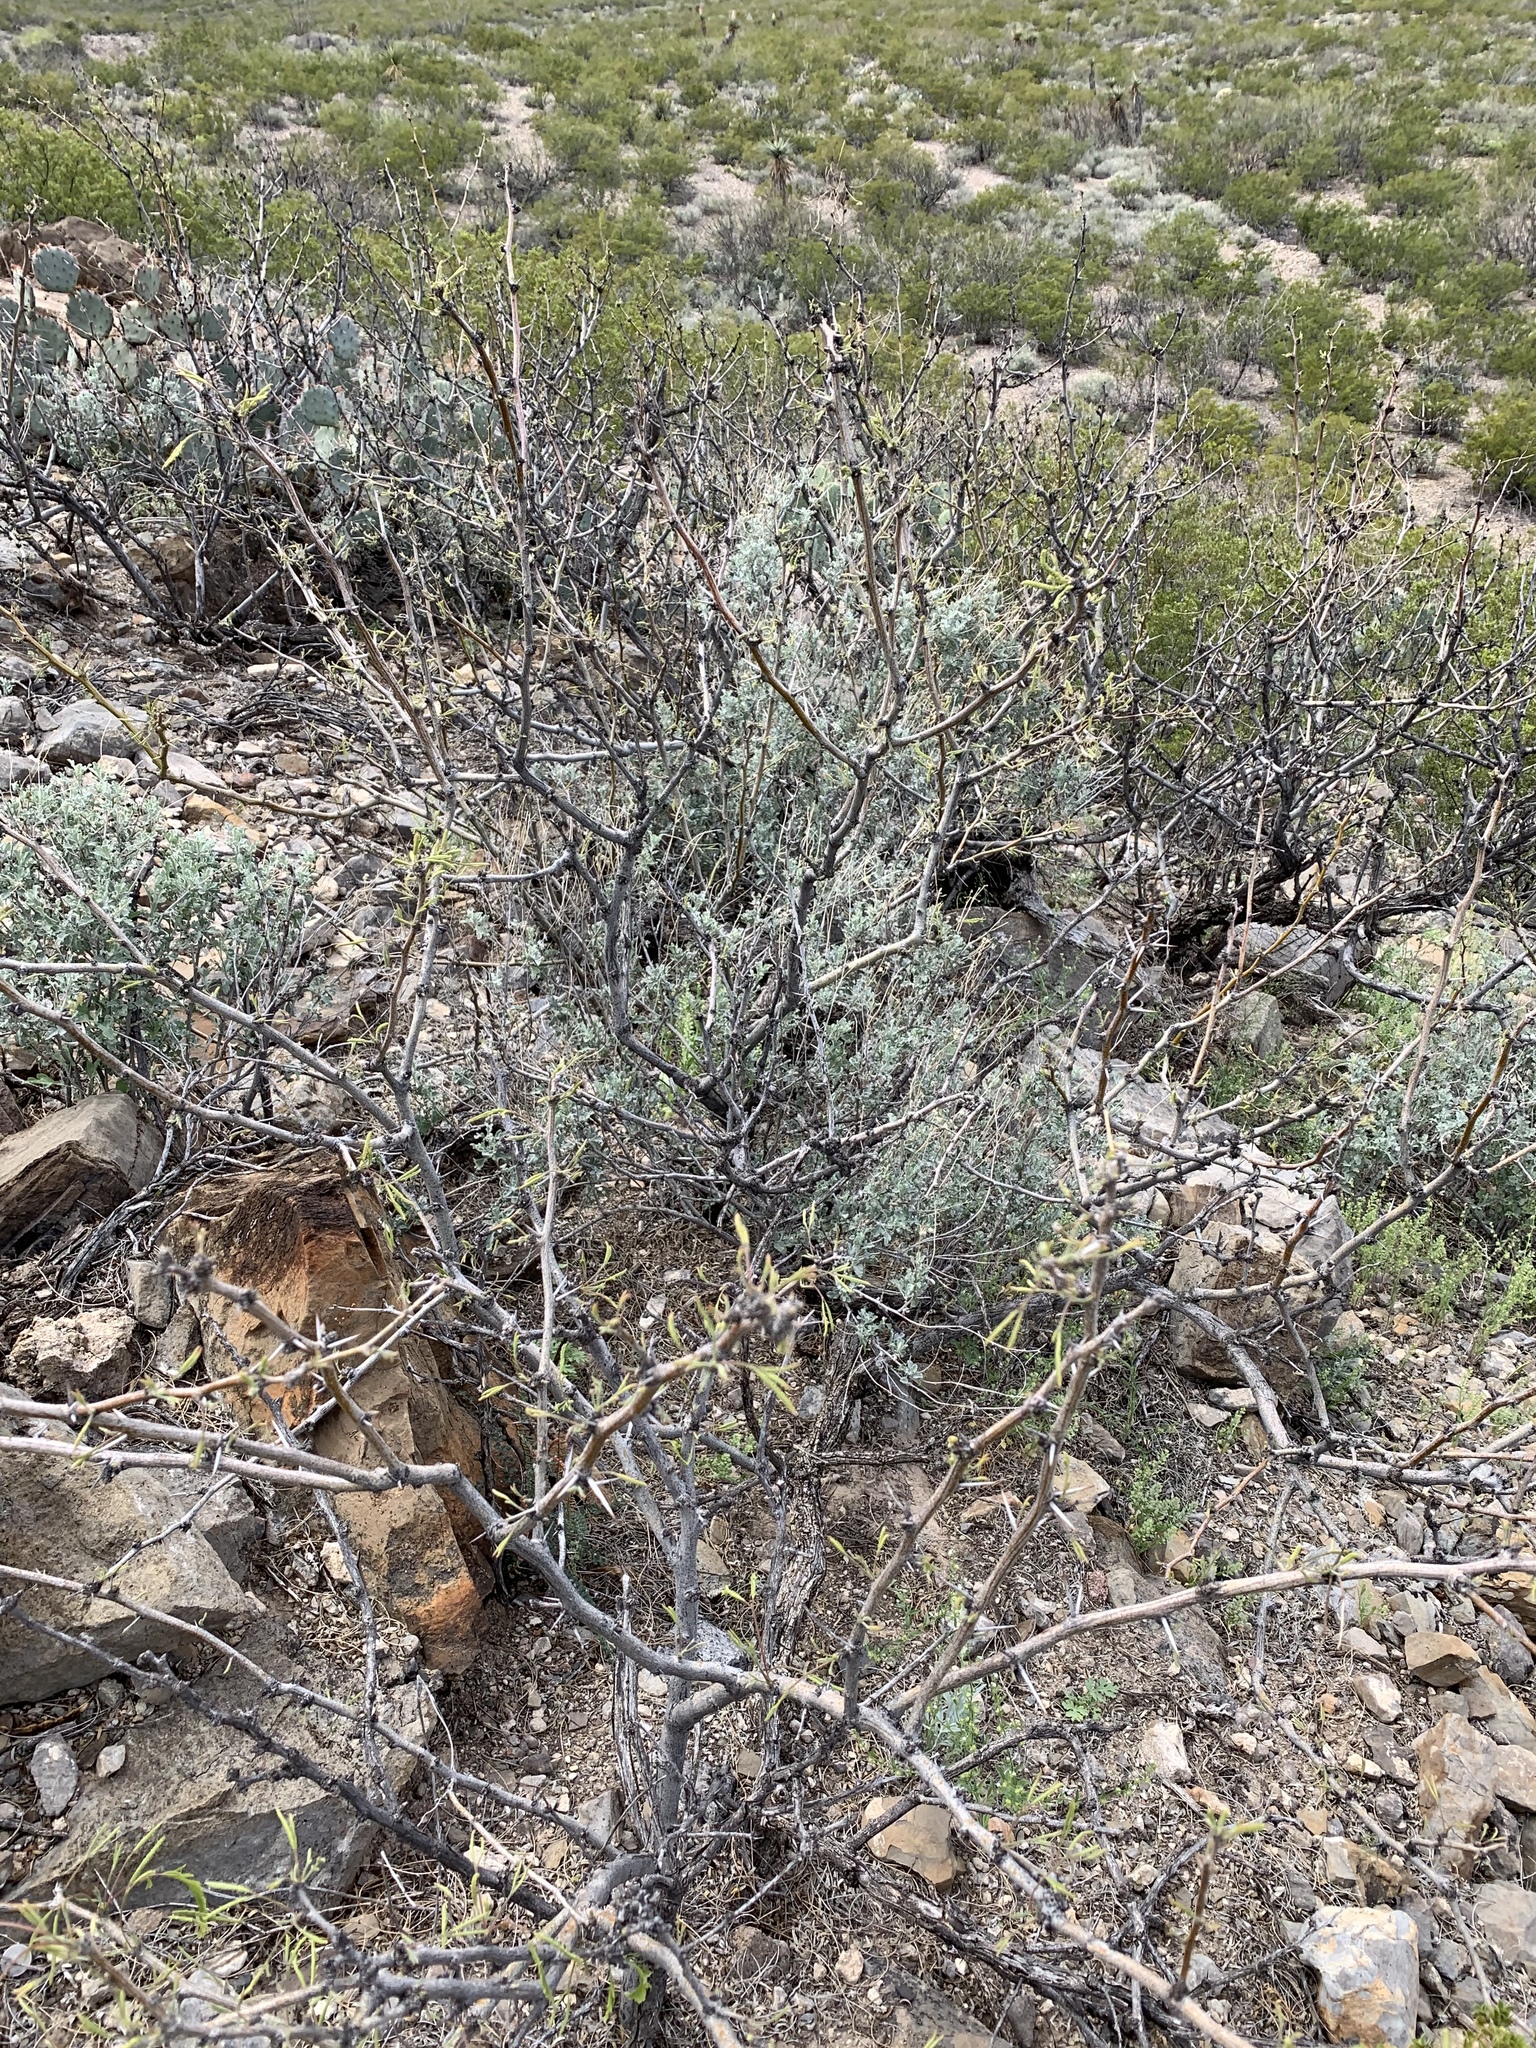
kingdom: Plantae
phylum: Tracheophyta
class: Magnoliopsida
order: Fabales
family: Fabaceae
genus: Prosopis
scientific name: Prosopis glandulosa
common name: Honey mesquite
